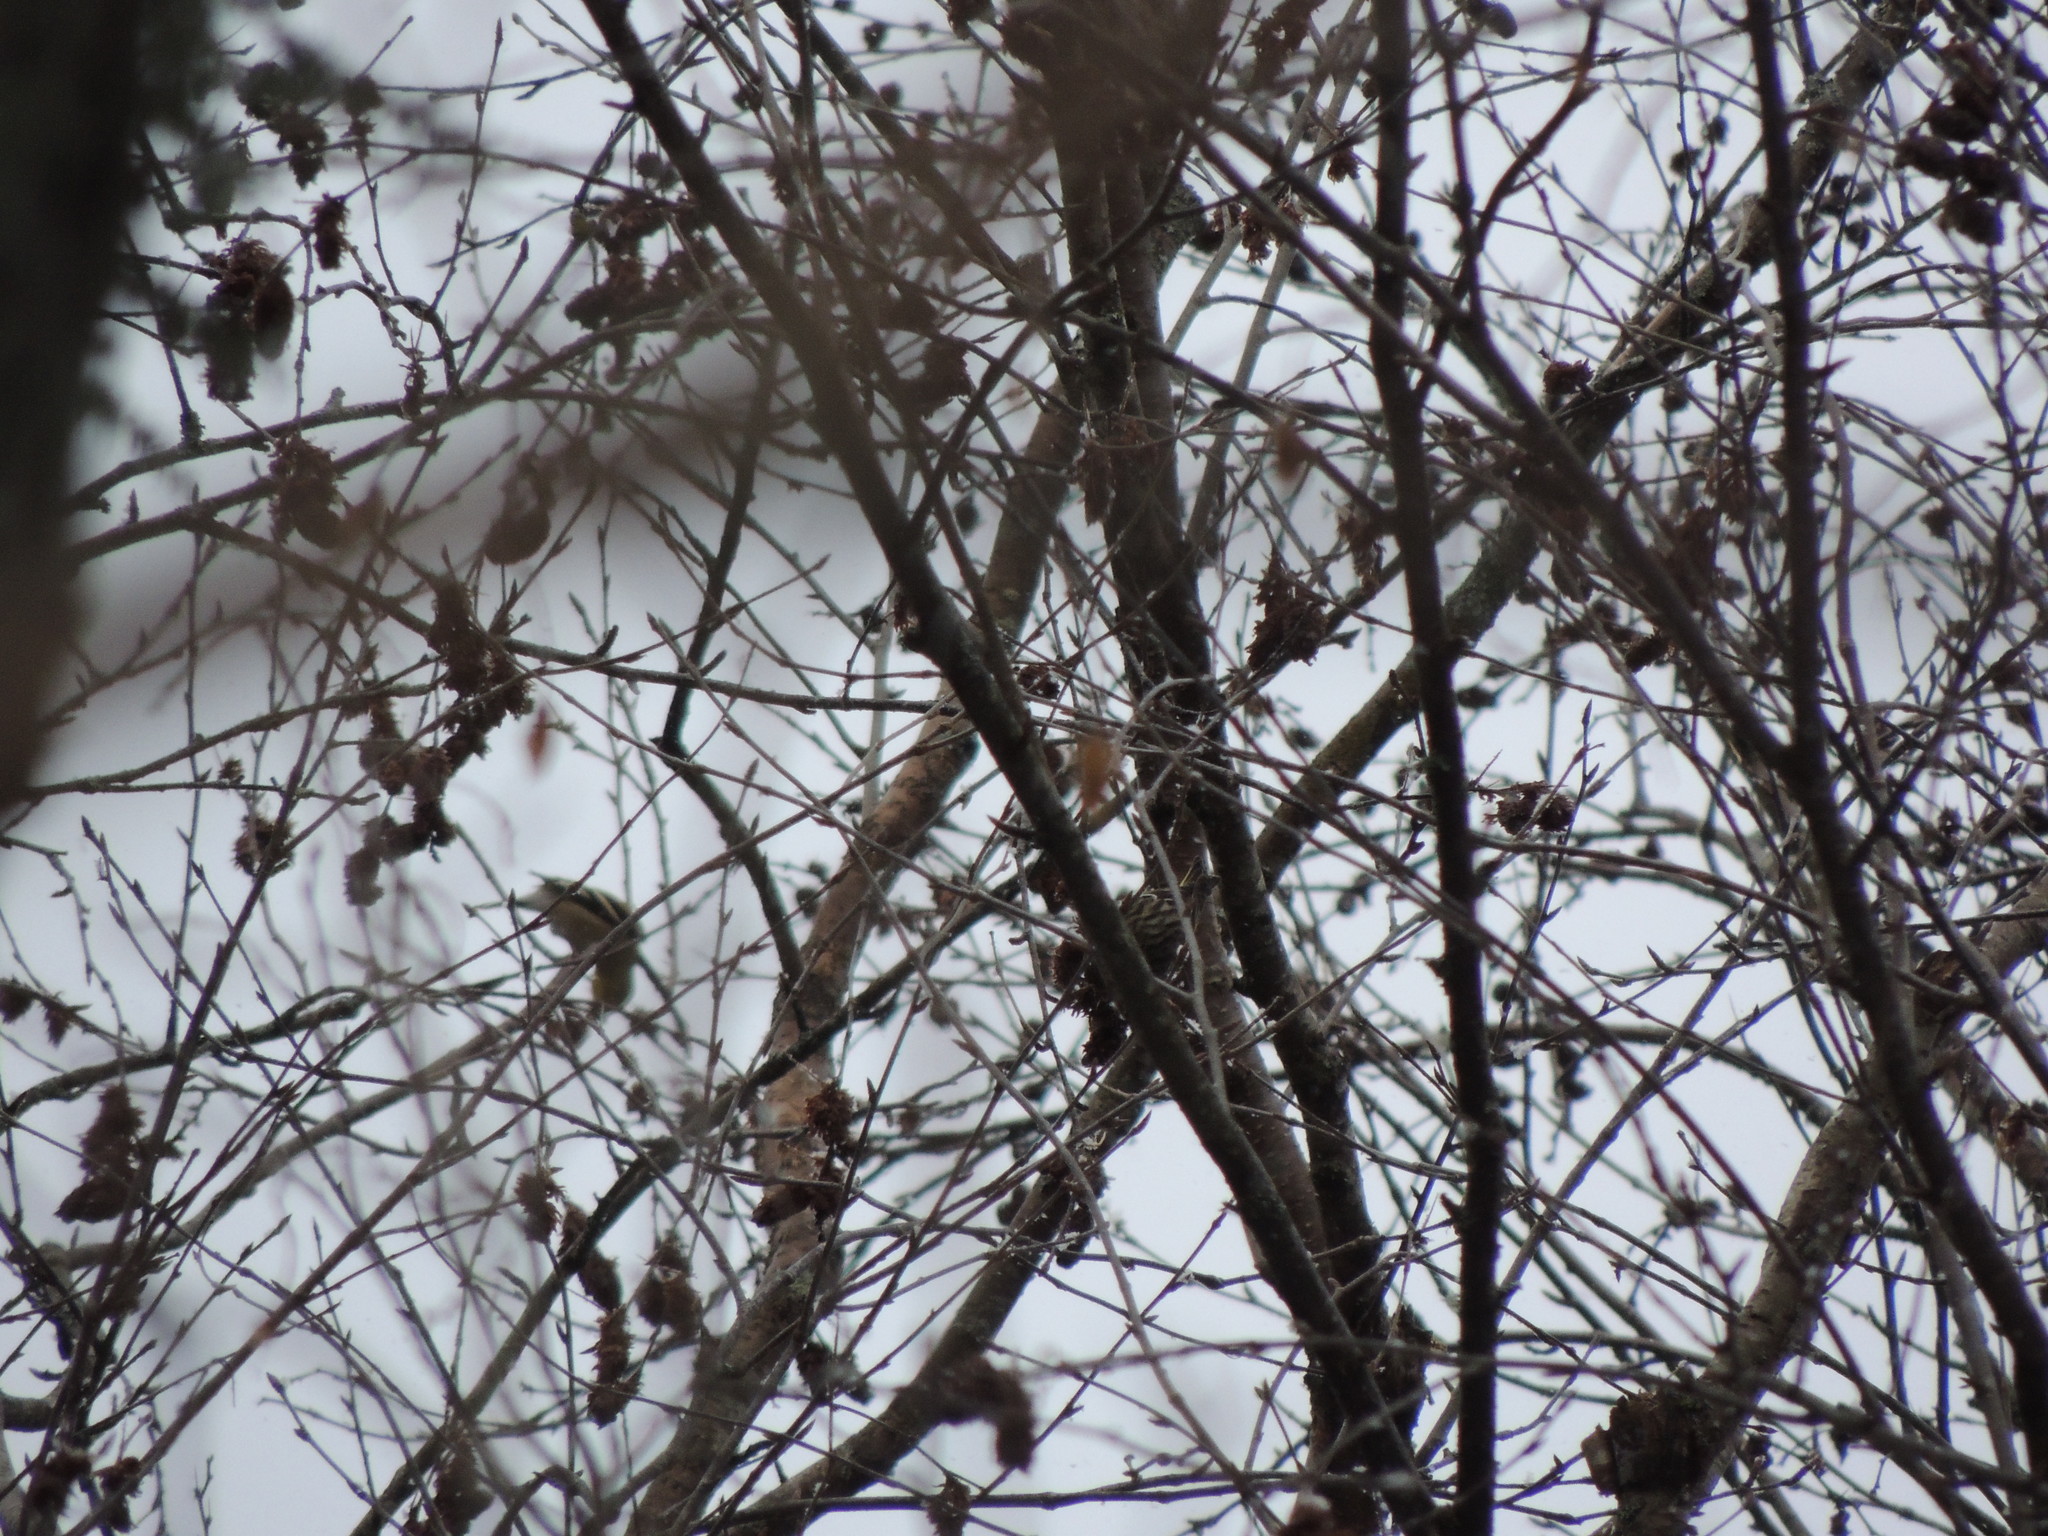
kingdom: Animalia
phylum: Chordata
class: Aves
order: Passeriformes
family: Fringillidae
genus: Spinus
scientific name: Spinus pinus
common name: Pine siskin
